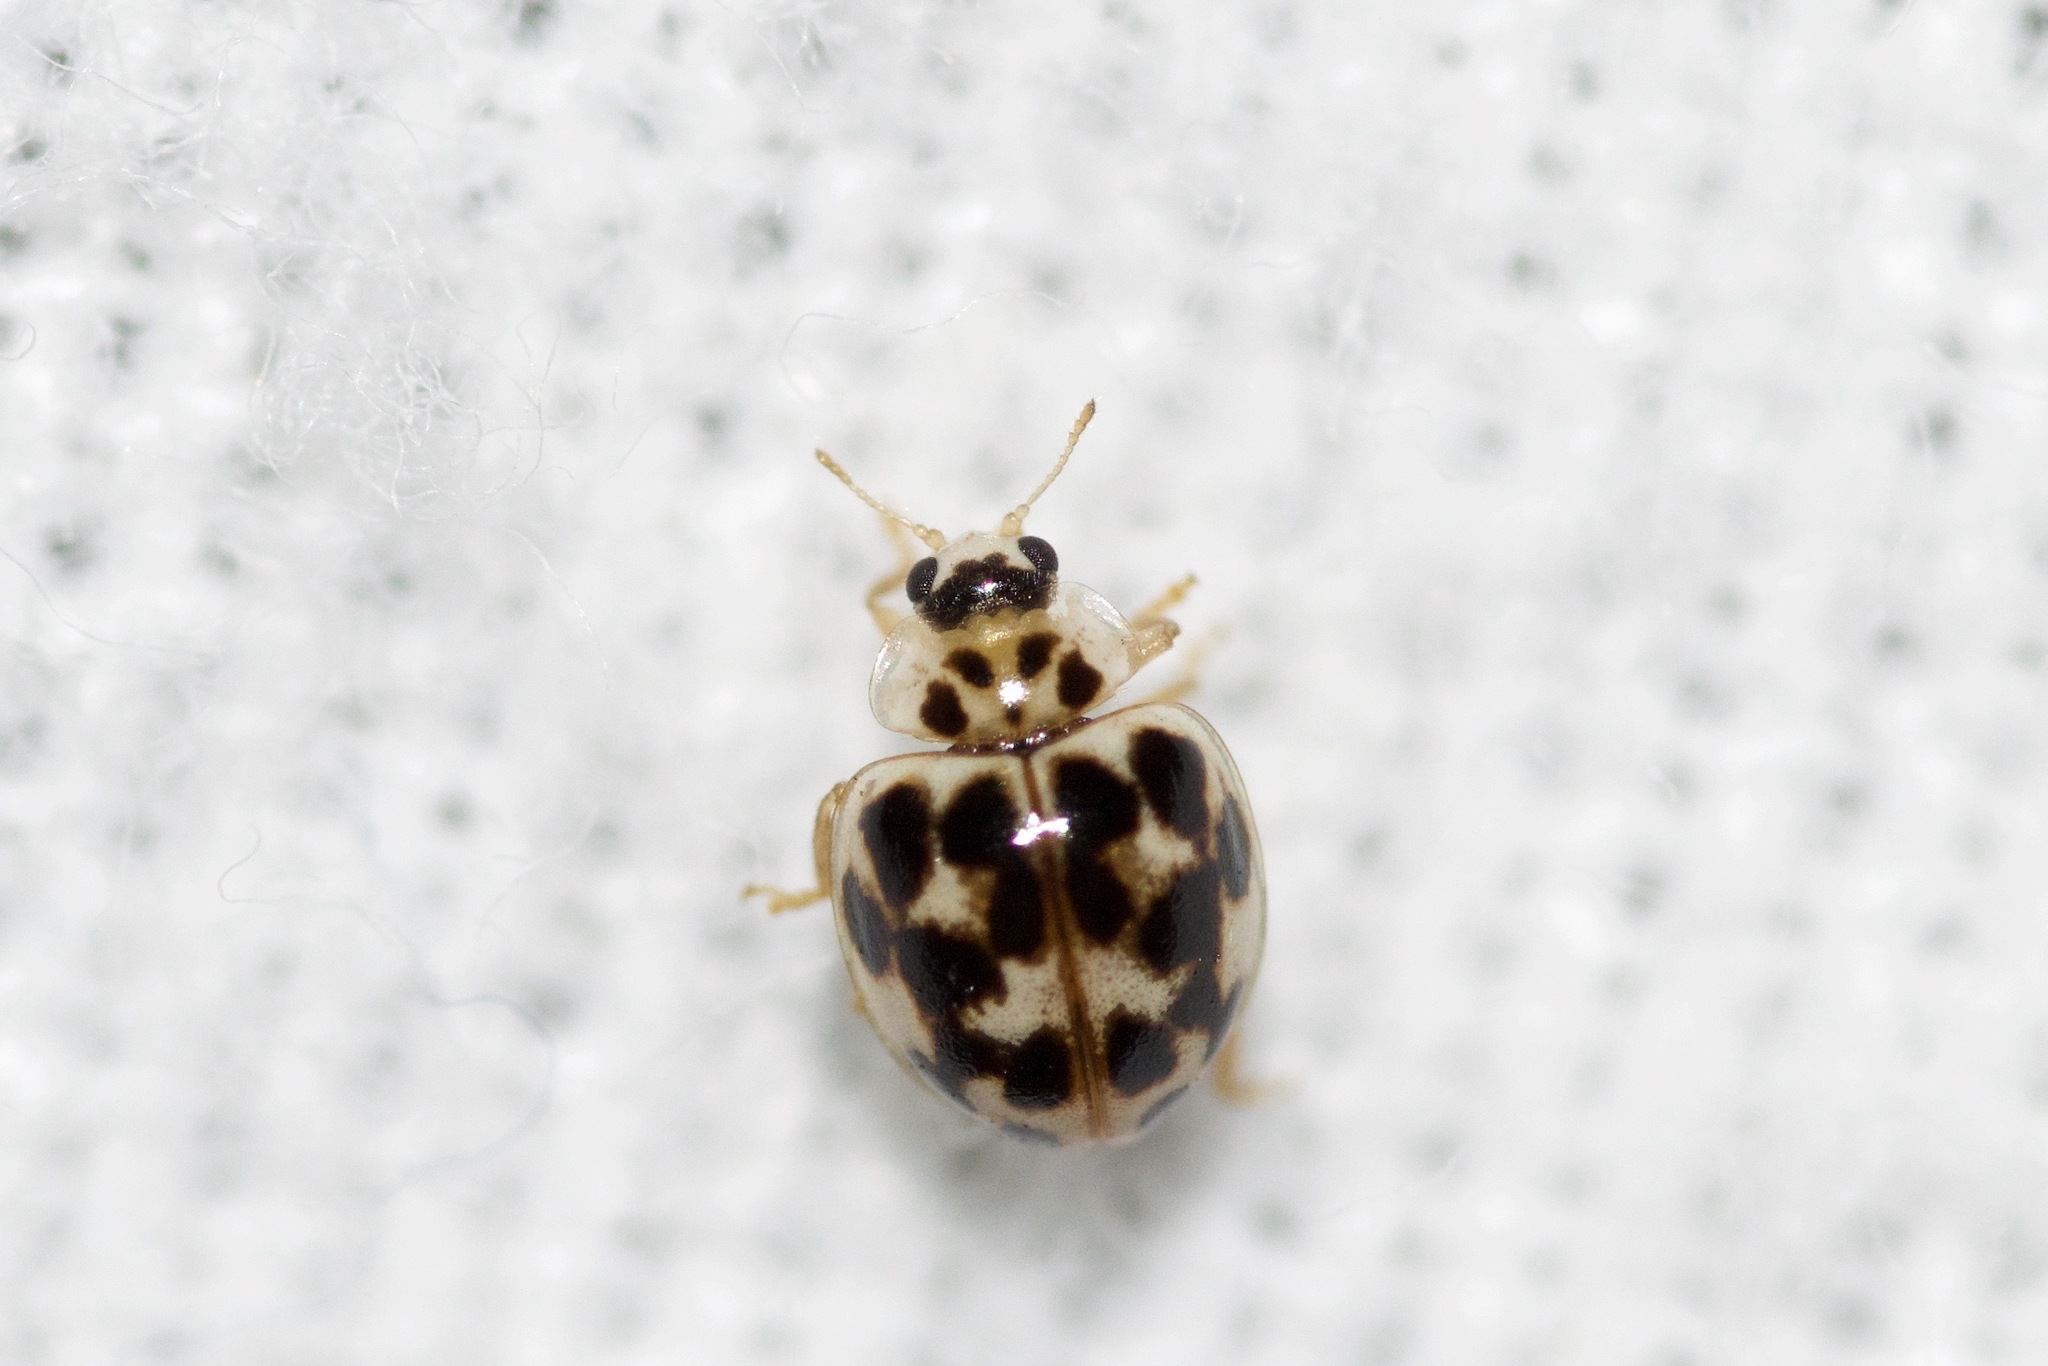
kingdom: Animalia
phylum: Arthropoda
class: Insecta
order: Coleoptera
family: Coccinellidae
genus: Psyllobora
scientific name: Psyllobora vigintimaculata
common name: Ladybird beetle
